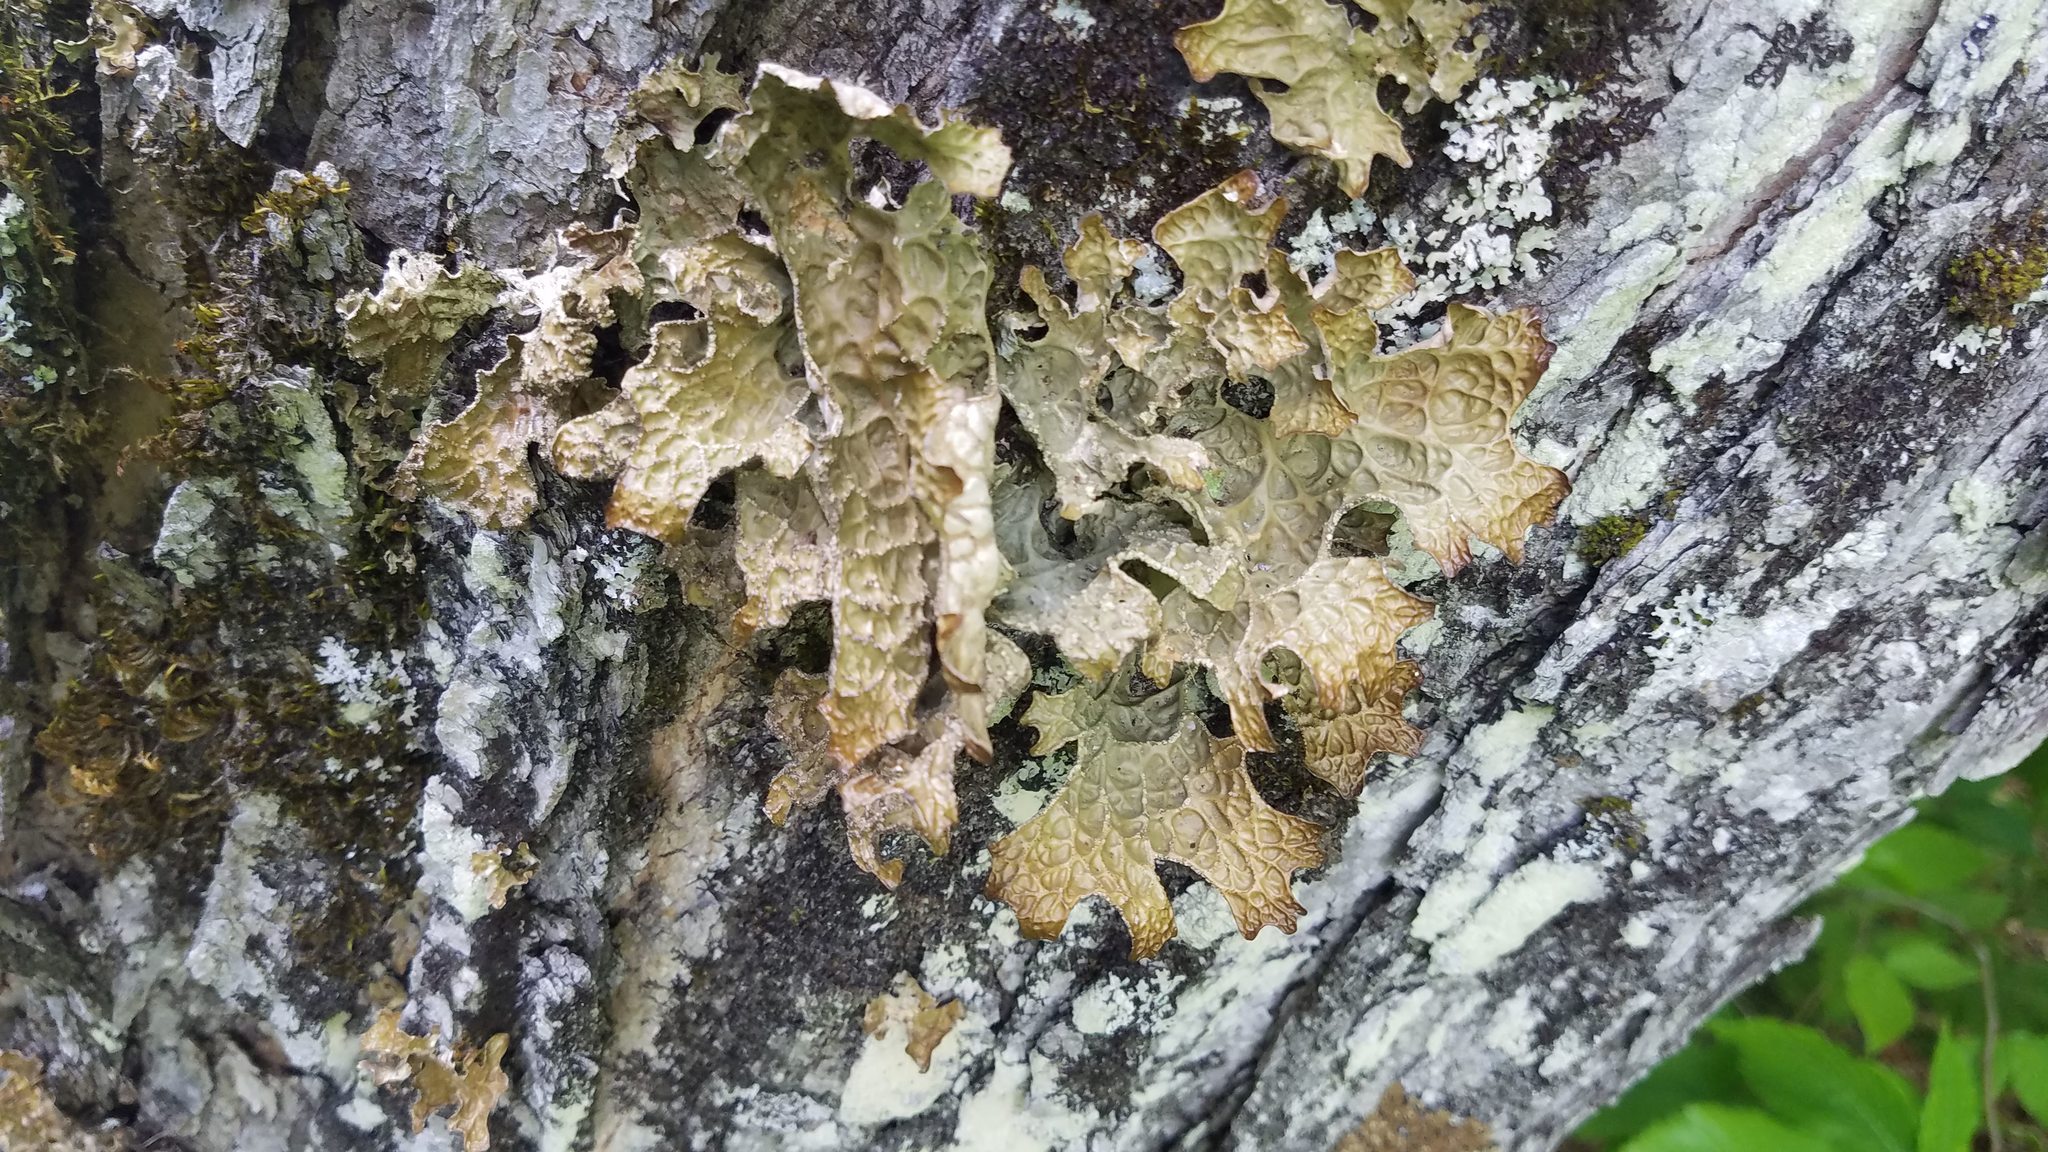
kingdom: Fungi
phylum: Ascomycota
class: Lecanoromycetes
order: Peltigerales
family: Lobariaceae
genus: Lobaria
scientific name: Lobaria pulmonaria
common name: Lungwort
